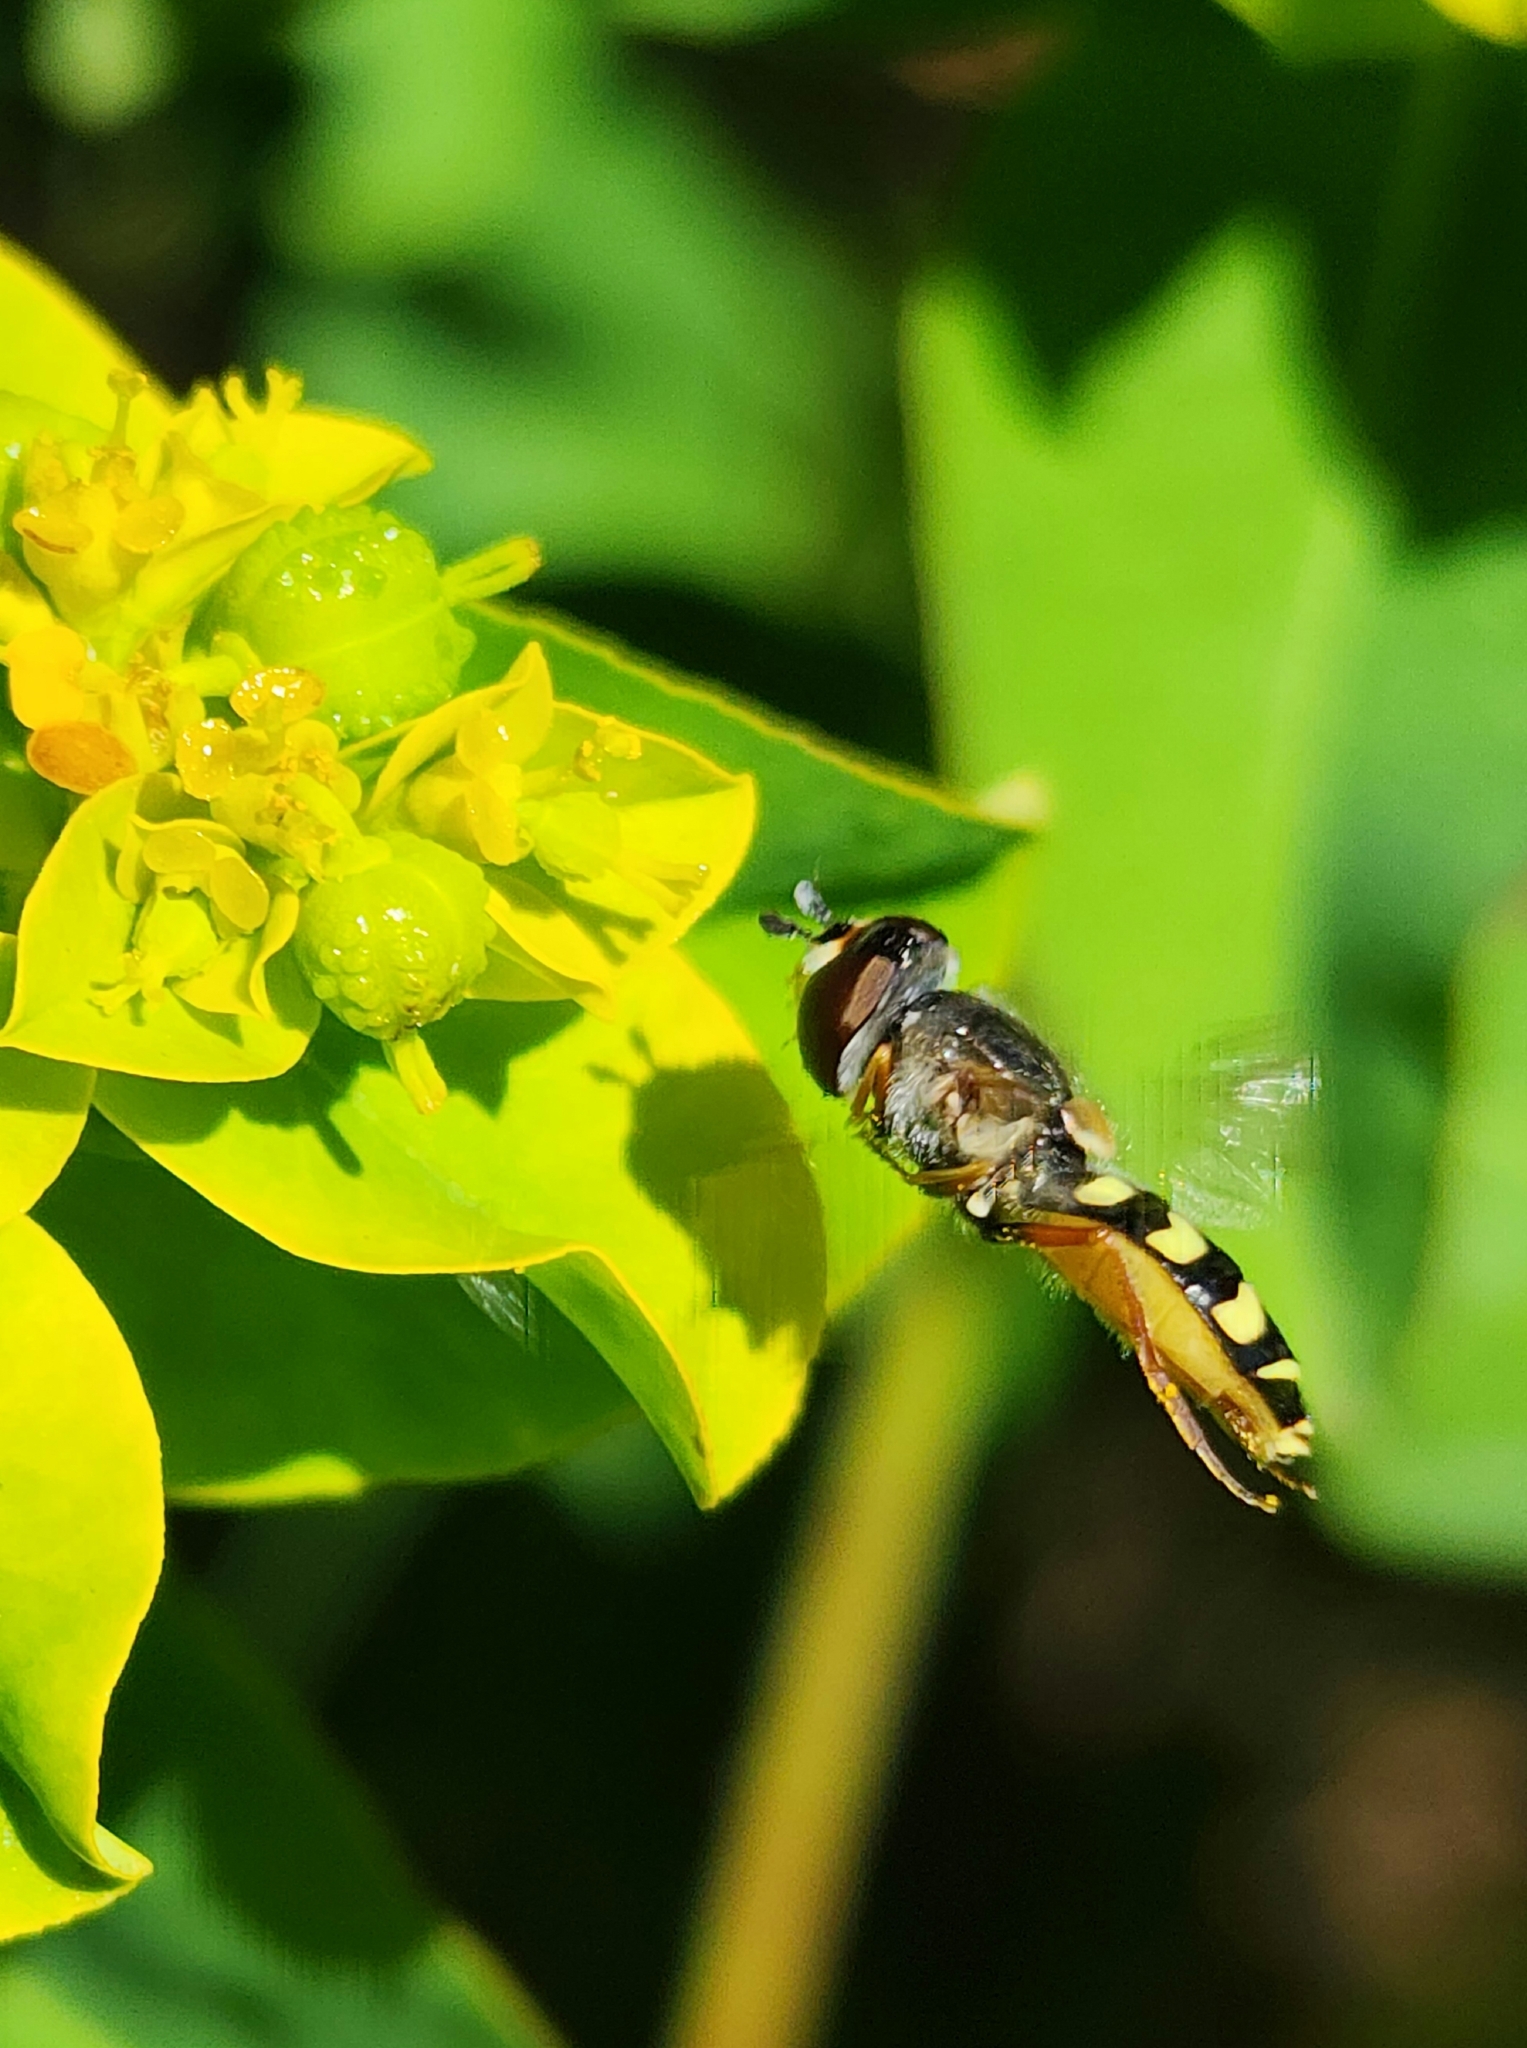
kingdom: Animalia
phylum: Arthropoda
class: Insecta
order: Diptera
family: Syrphidae
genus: Eupeodes
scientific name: Eupeodes volucris
